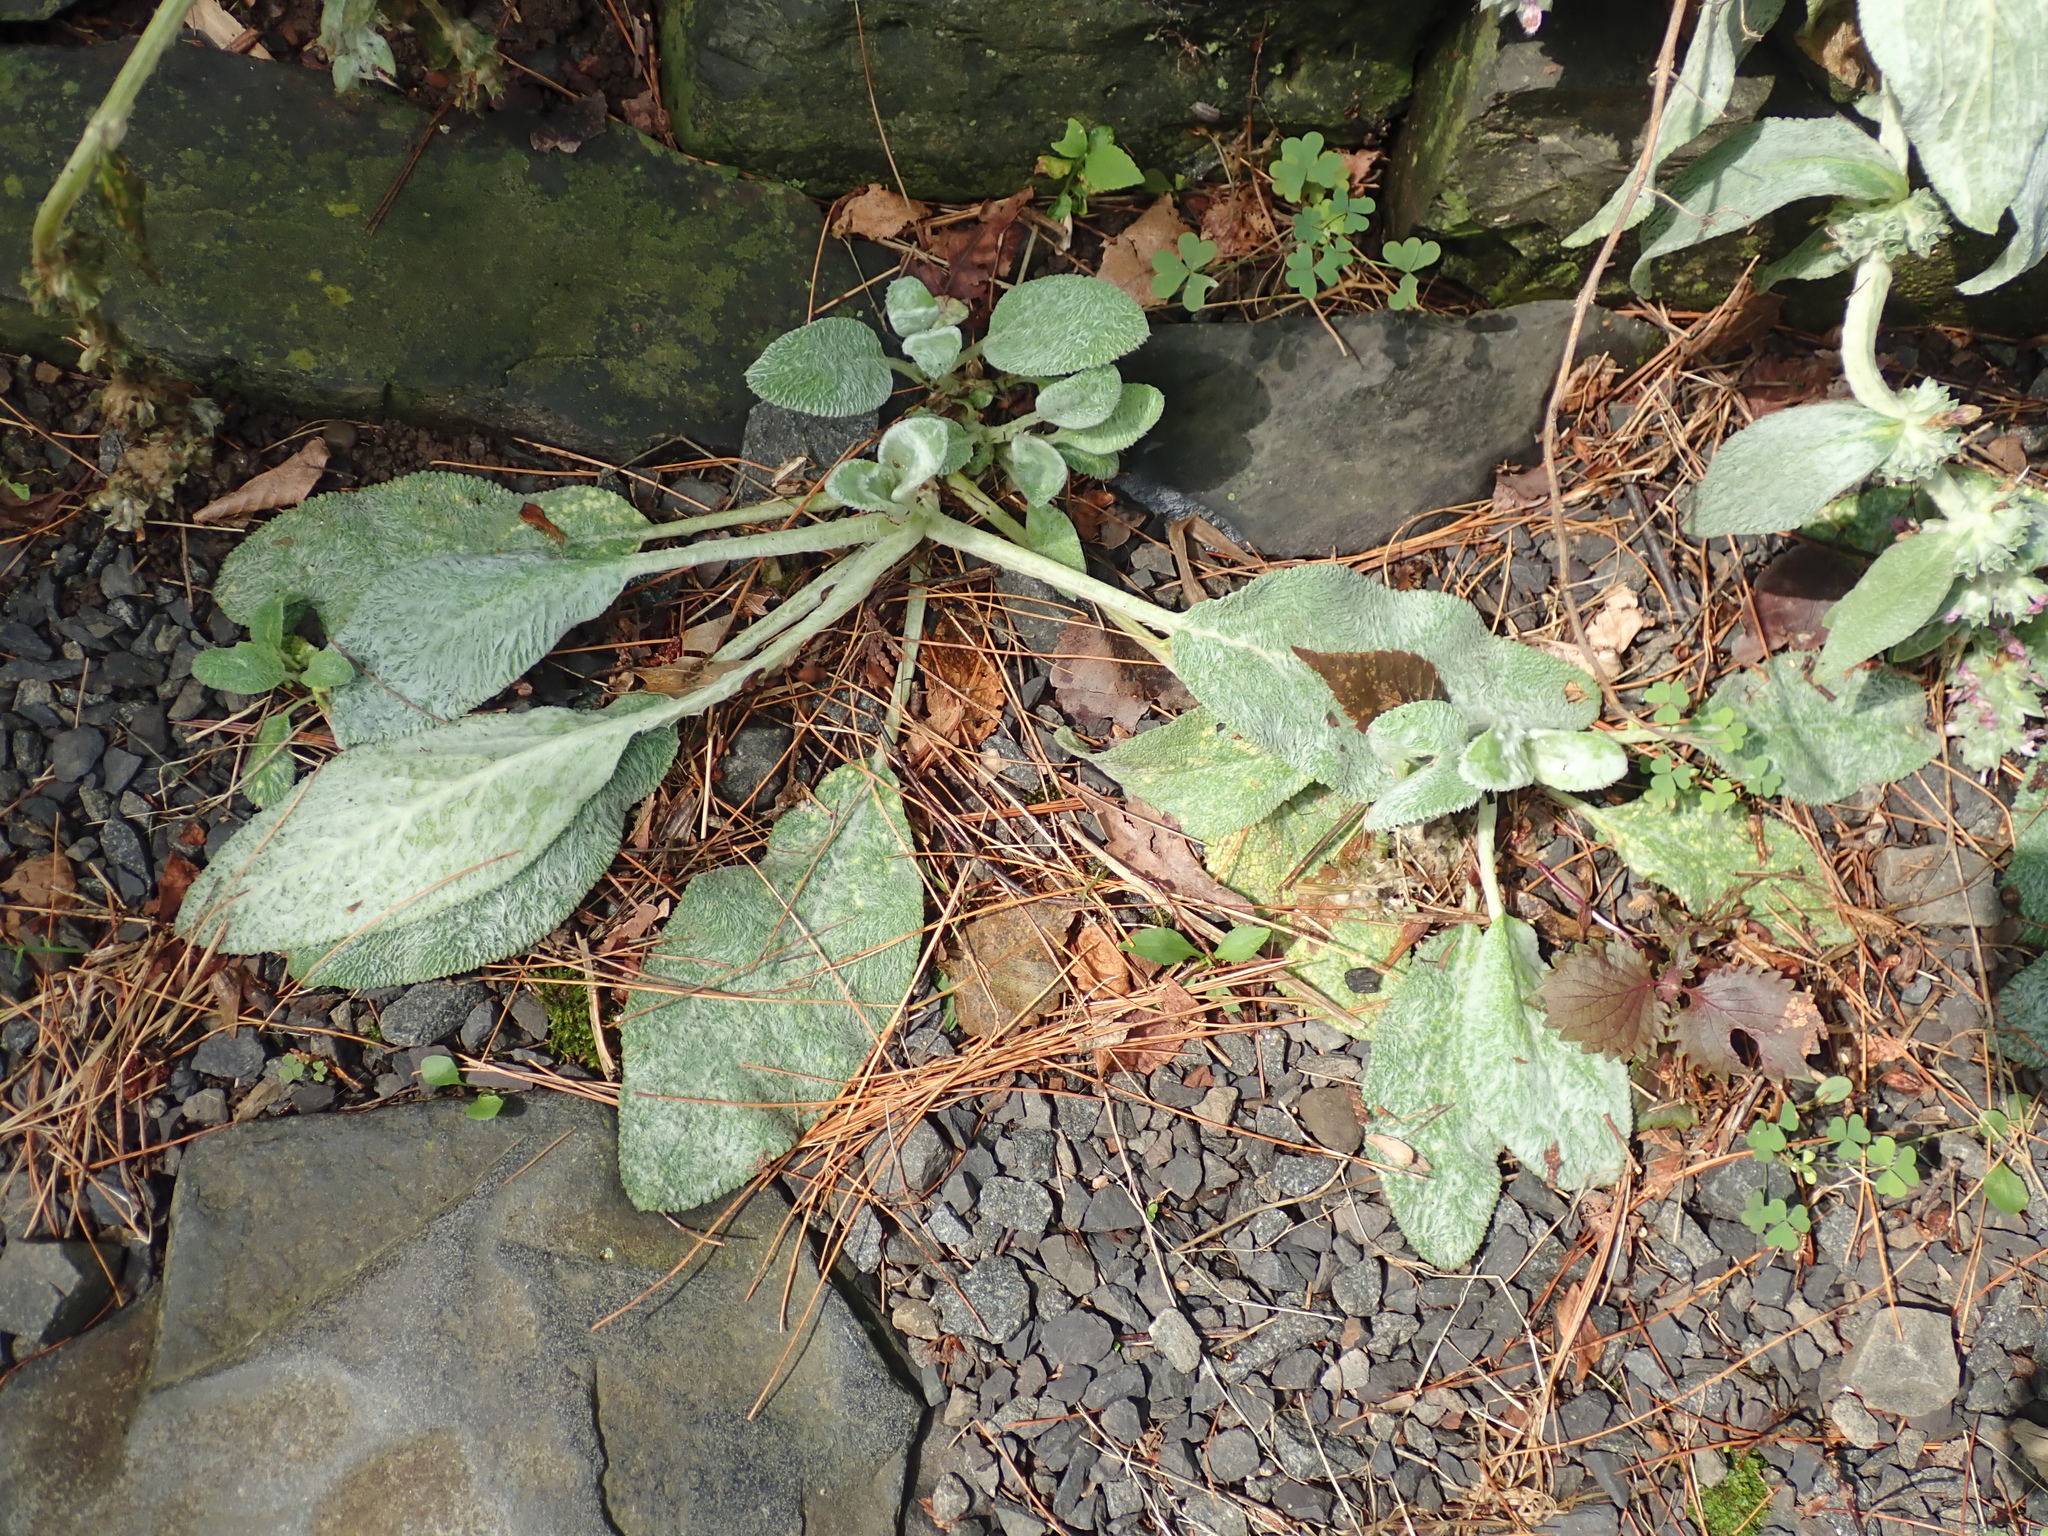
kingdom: Plantae
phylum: Tracheophyta
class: Magnoliopsida
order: Lamiales
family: Lamiaceae
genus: Stachys
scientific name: Stachys byzantina
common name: Lamb's-ear
